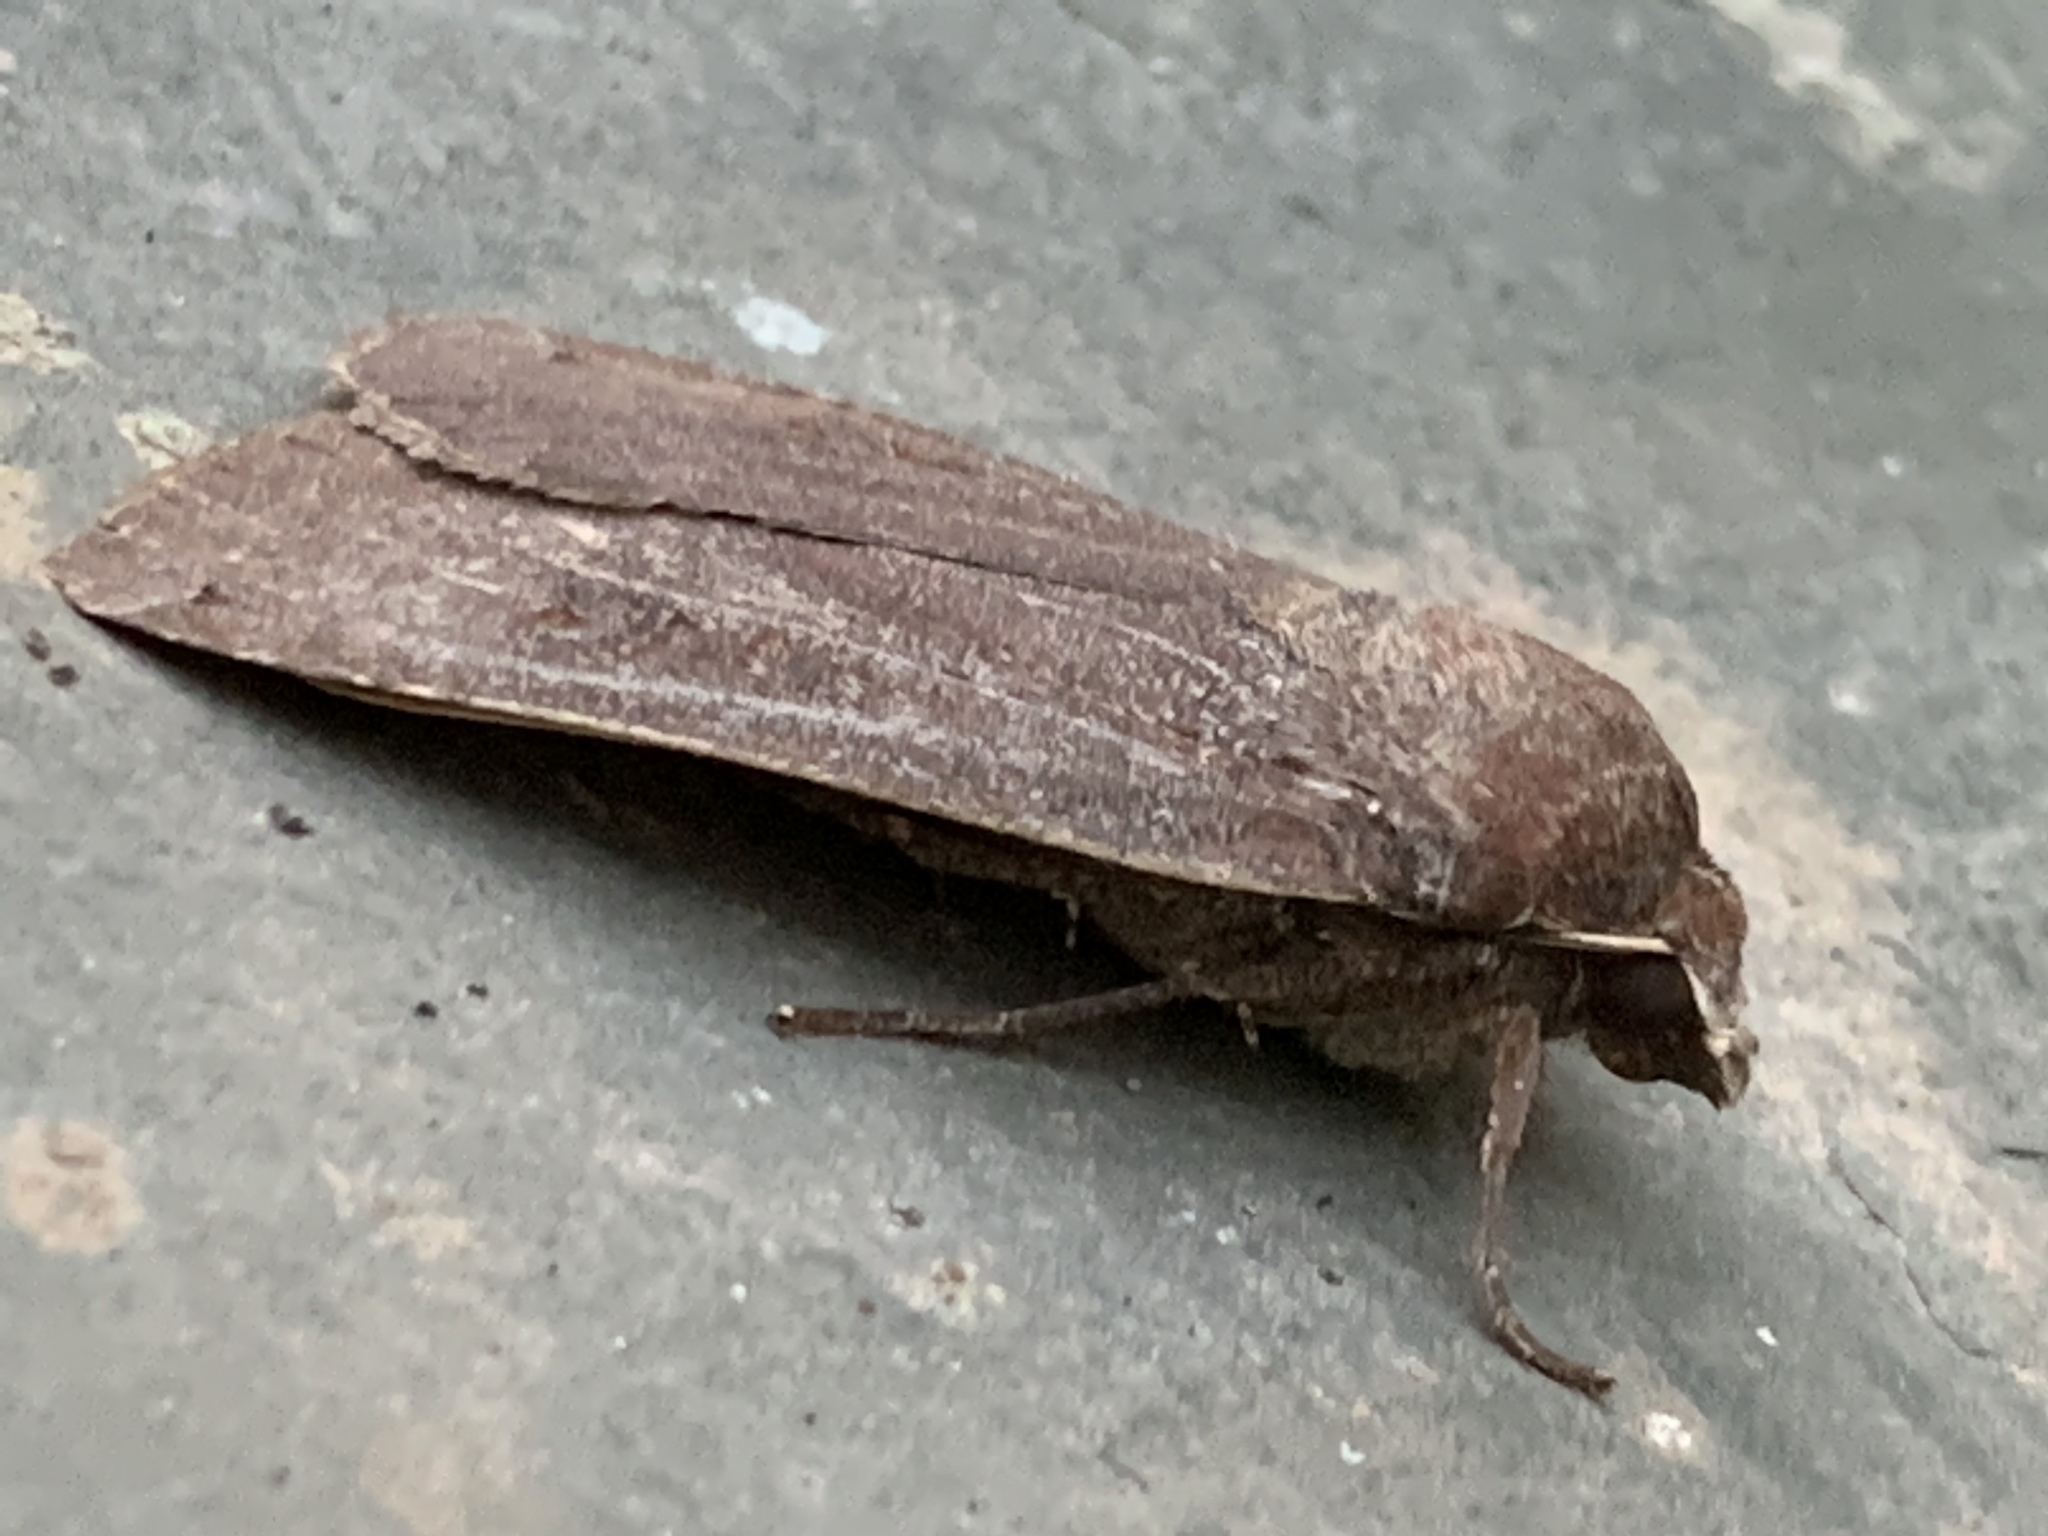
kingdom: Animalia
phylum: Arthropoda
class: Insecta
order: Lepidoptera
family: Noctuidae
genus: Noctua
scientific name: Noctua pronuba
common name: Large yellow underwing
